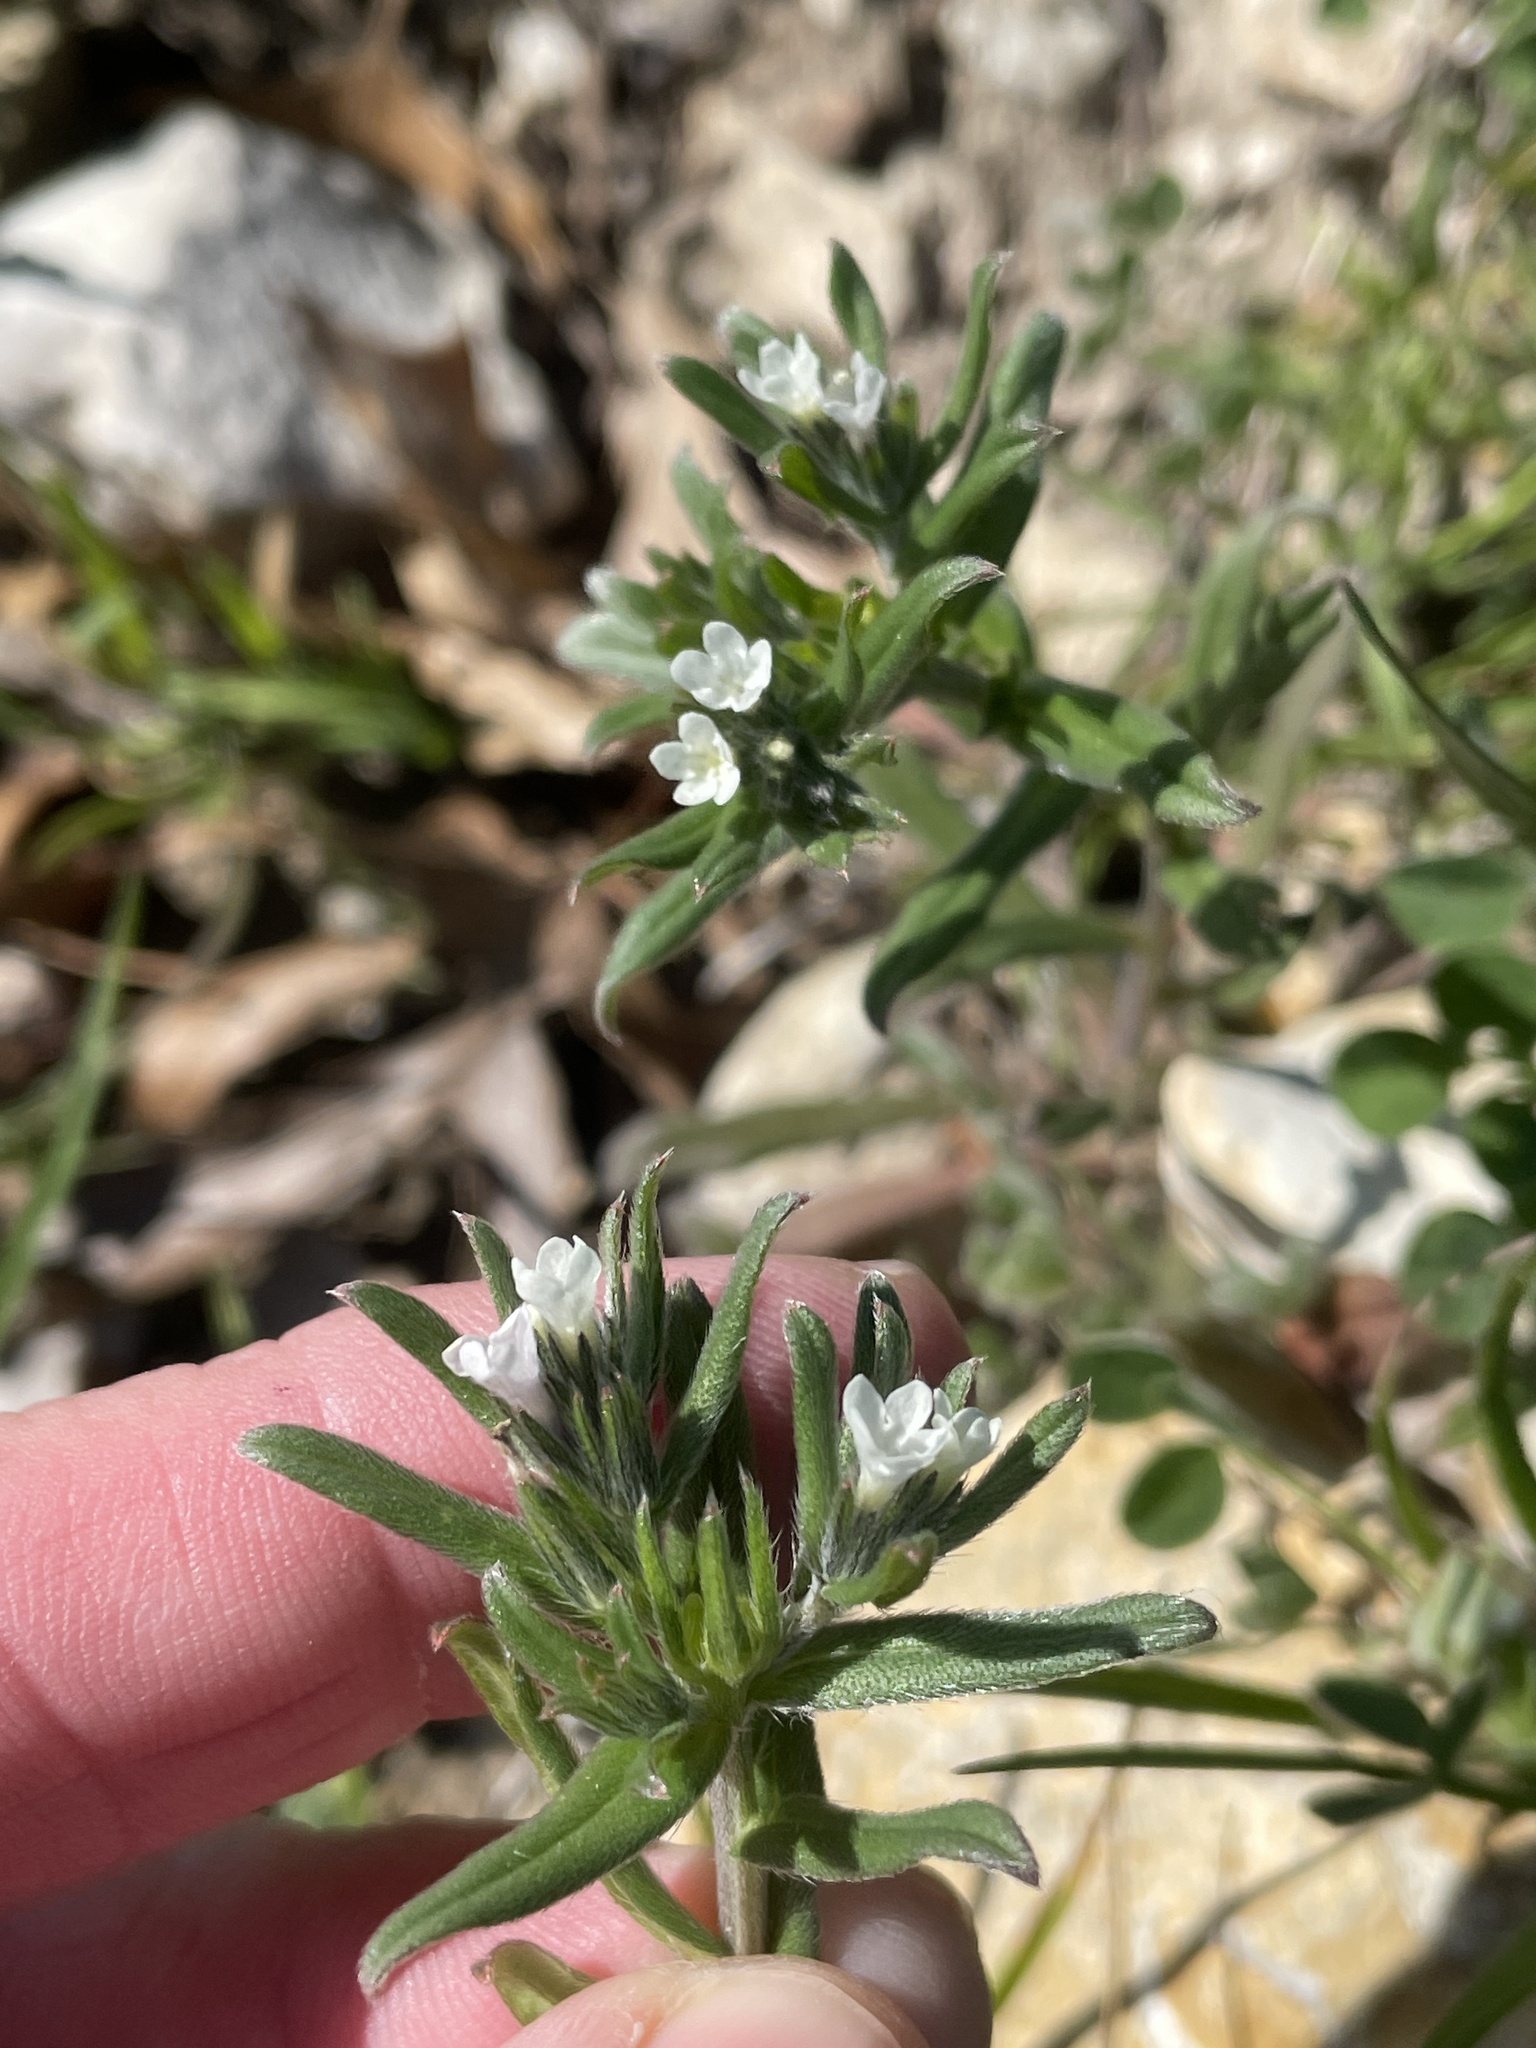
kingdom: Plantae
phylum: Tracheophyta
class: Magnoliopsida
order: Boraginales
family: Boraginaceae
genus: Buglossoides
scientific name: Buglossoides arvensis
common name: Corn gromwell
